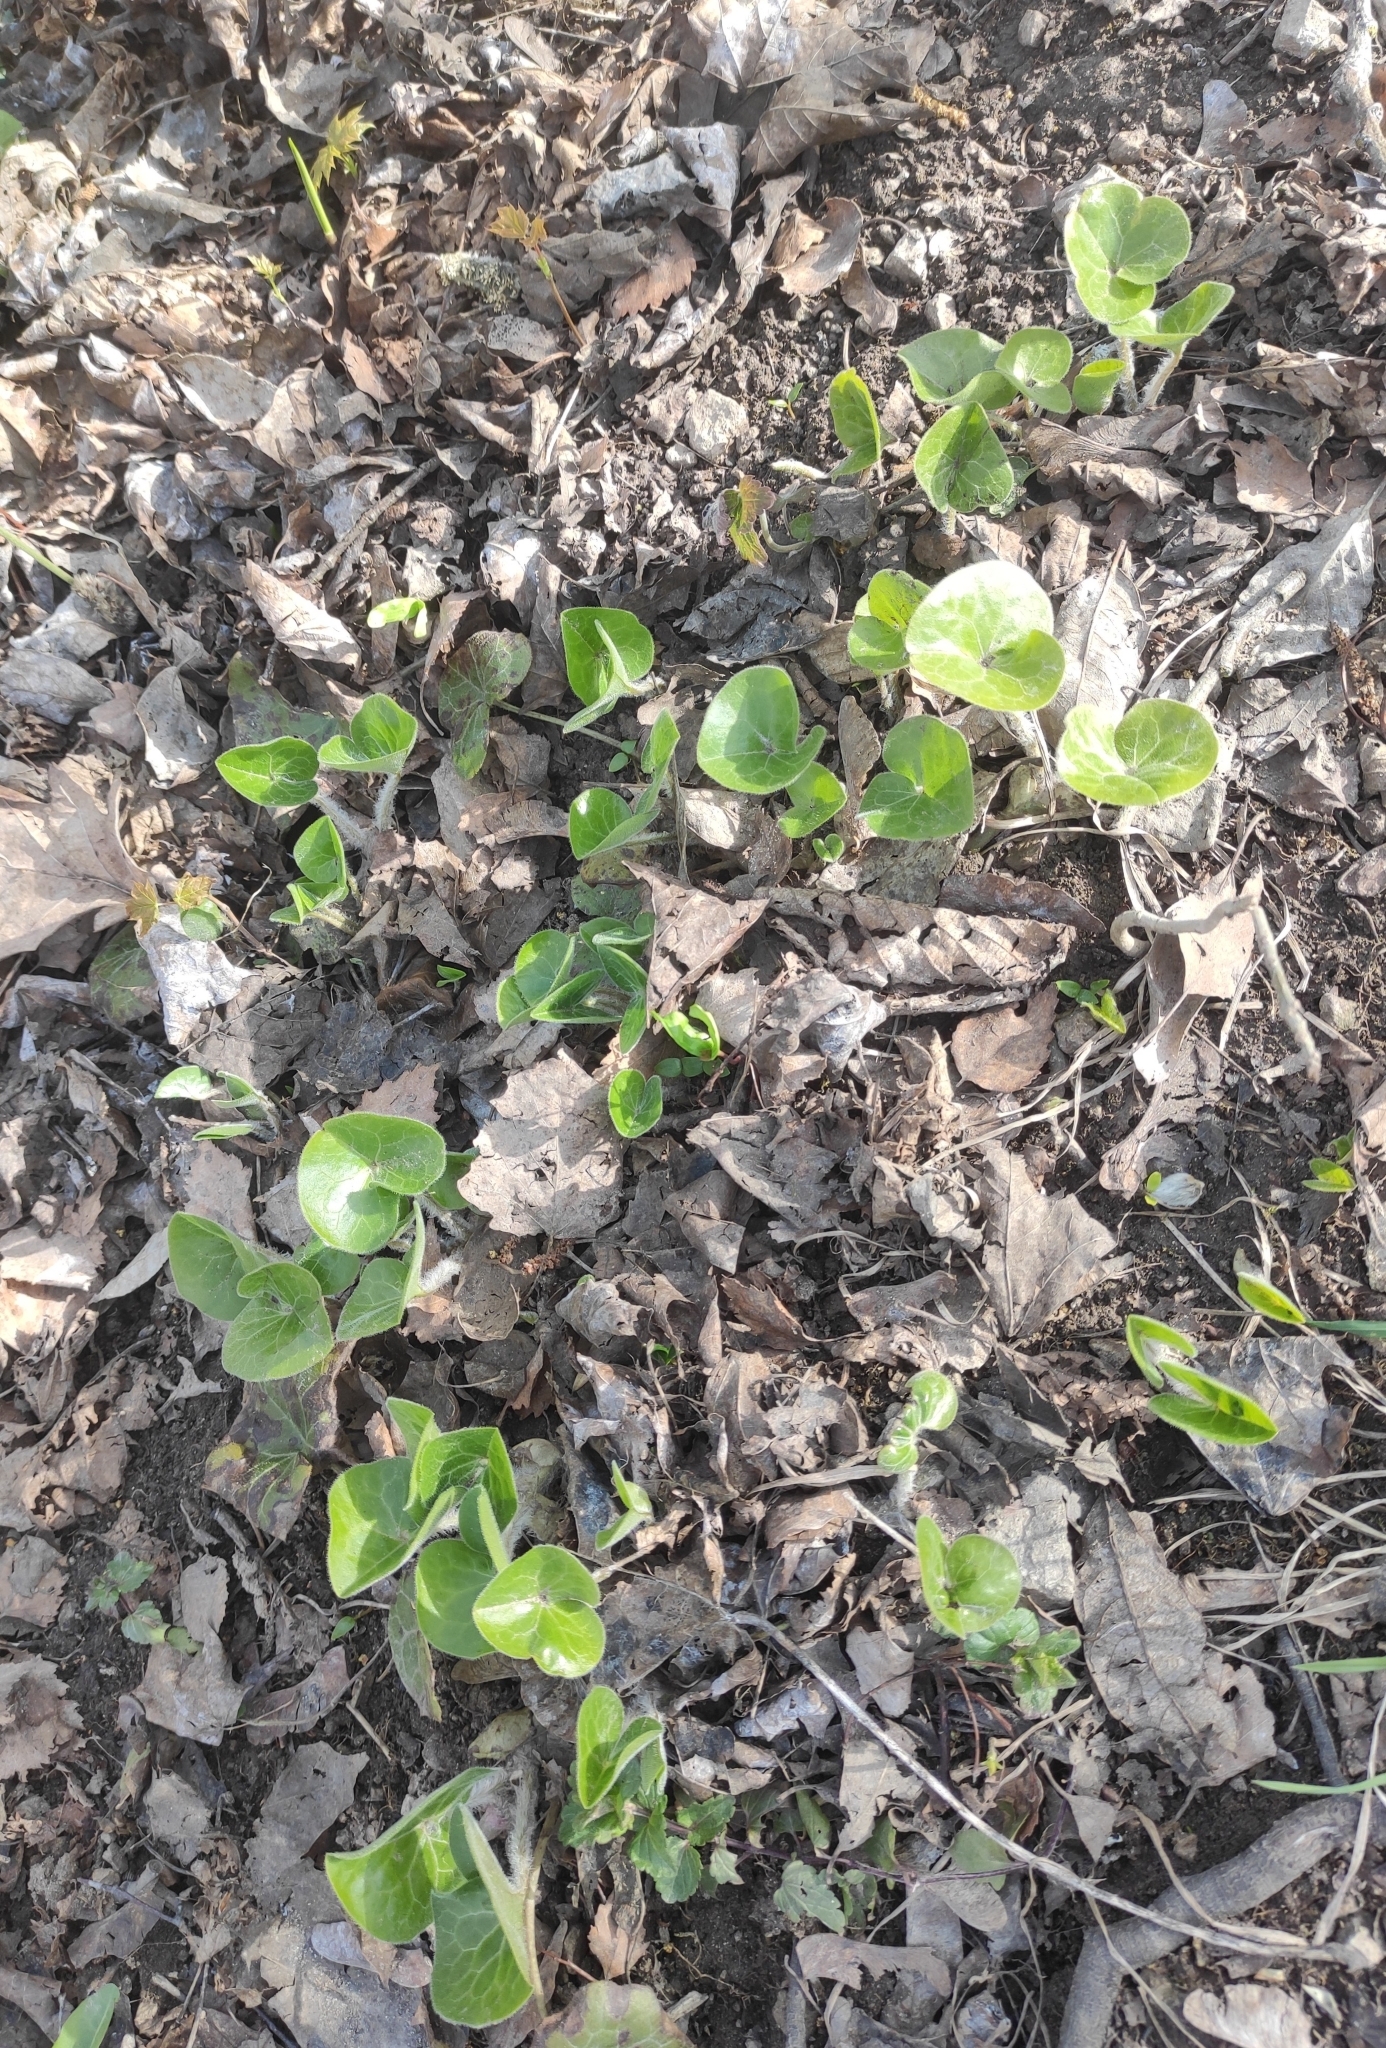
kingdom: Plantae
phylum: Tracheophyta
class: Magnoliopsida
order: Piperales
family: Aristolochiaceae
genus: Asarum
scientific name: Asarum europaeum
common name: Asarabacca
